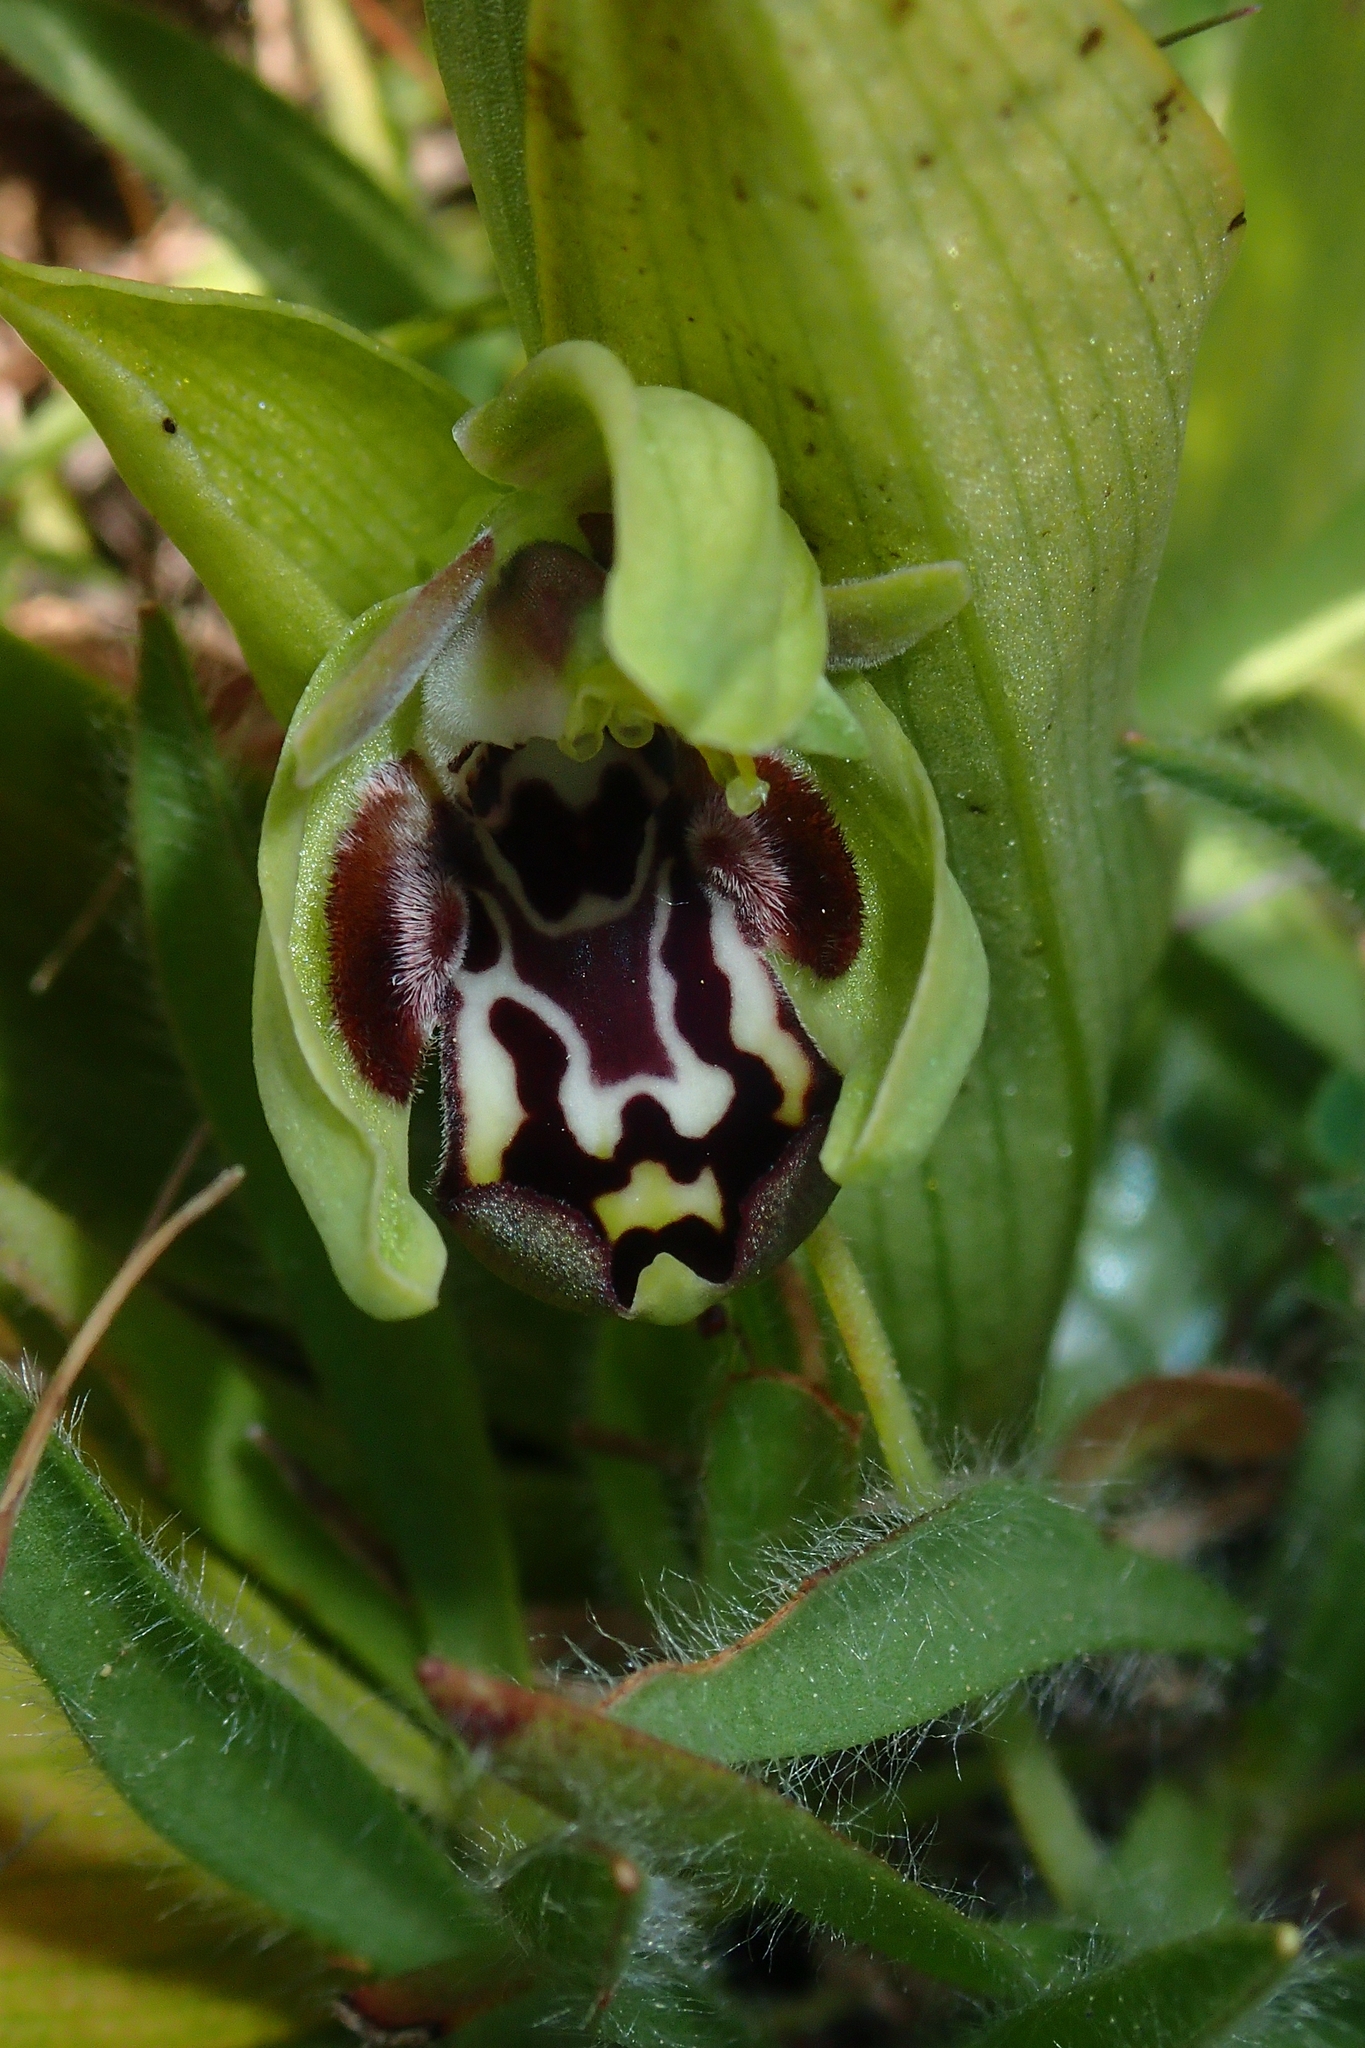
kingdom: Plantae
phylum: Tracheophyta
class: Liliopsida
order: Asparagales
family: Orchidaceae
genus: Ophrys
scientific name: Ophrys kotschyi
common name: Kotschy's ophrys
